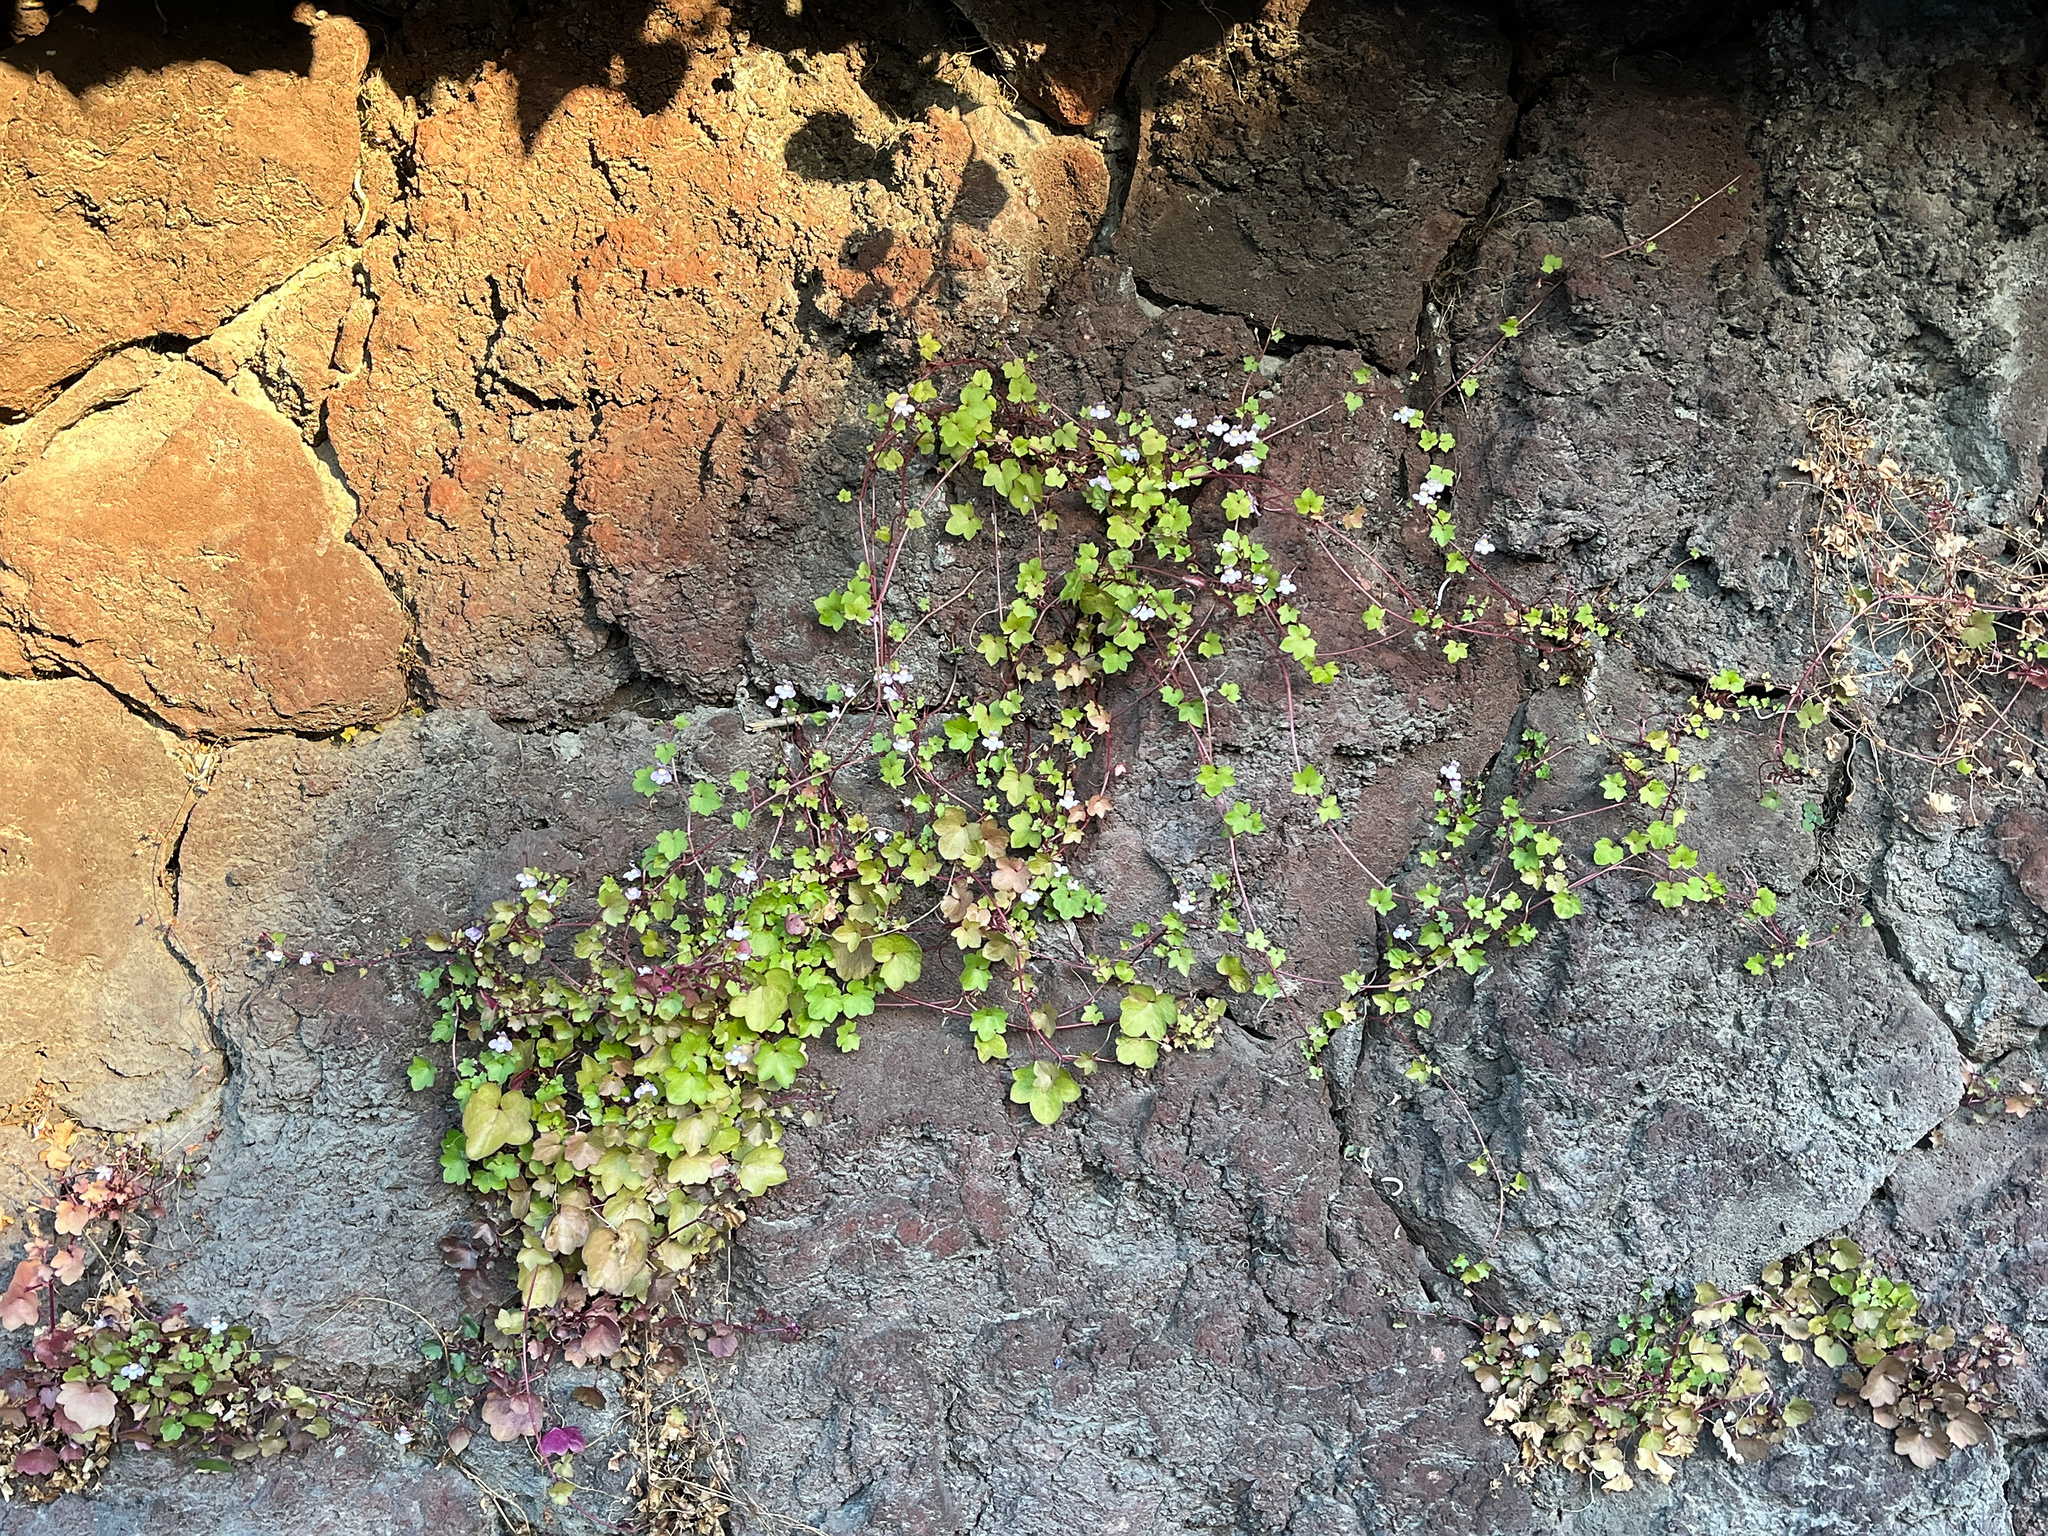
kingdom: Plantae
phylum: Tracheophyta
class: Magnoliopsida
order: Lamiales
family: Plantaginaceae
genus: Cymbalaria
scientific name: Cymbalaria muralis
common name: Ivy-leaved toadflax
